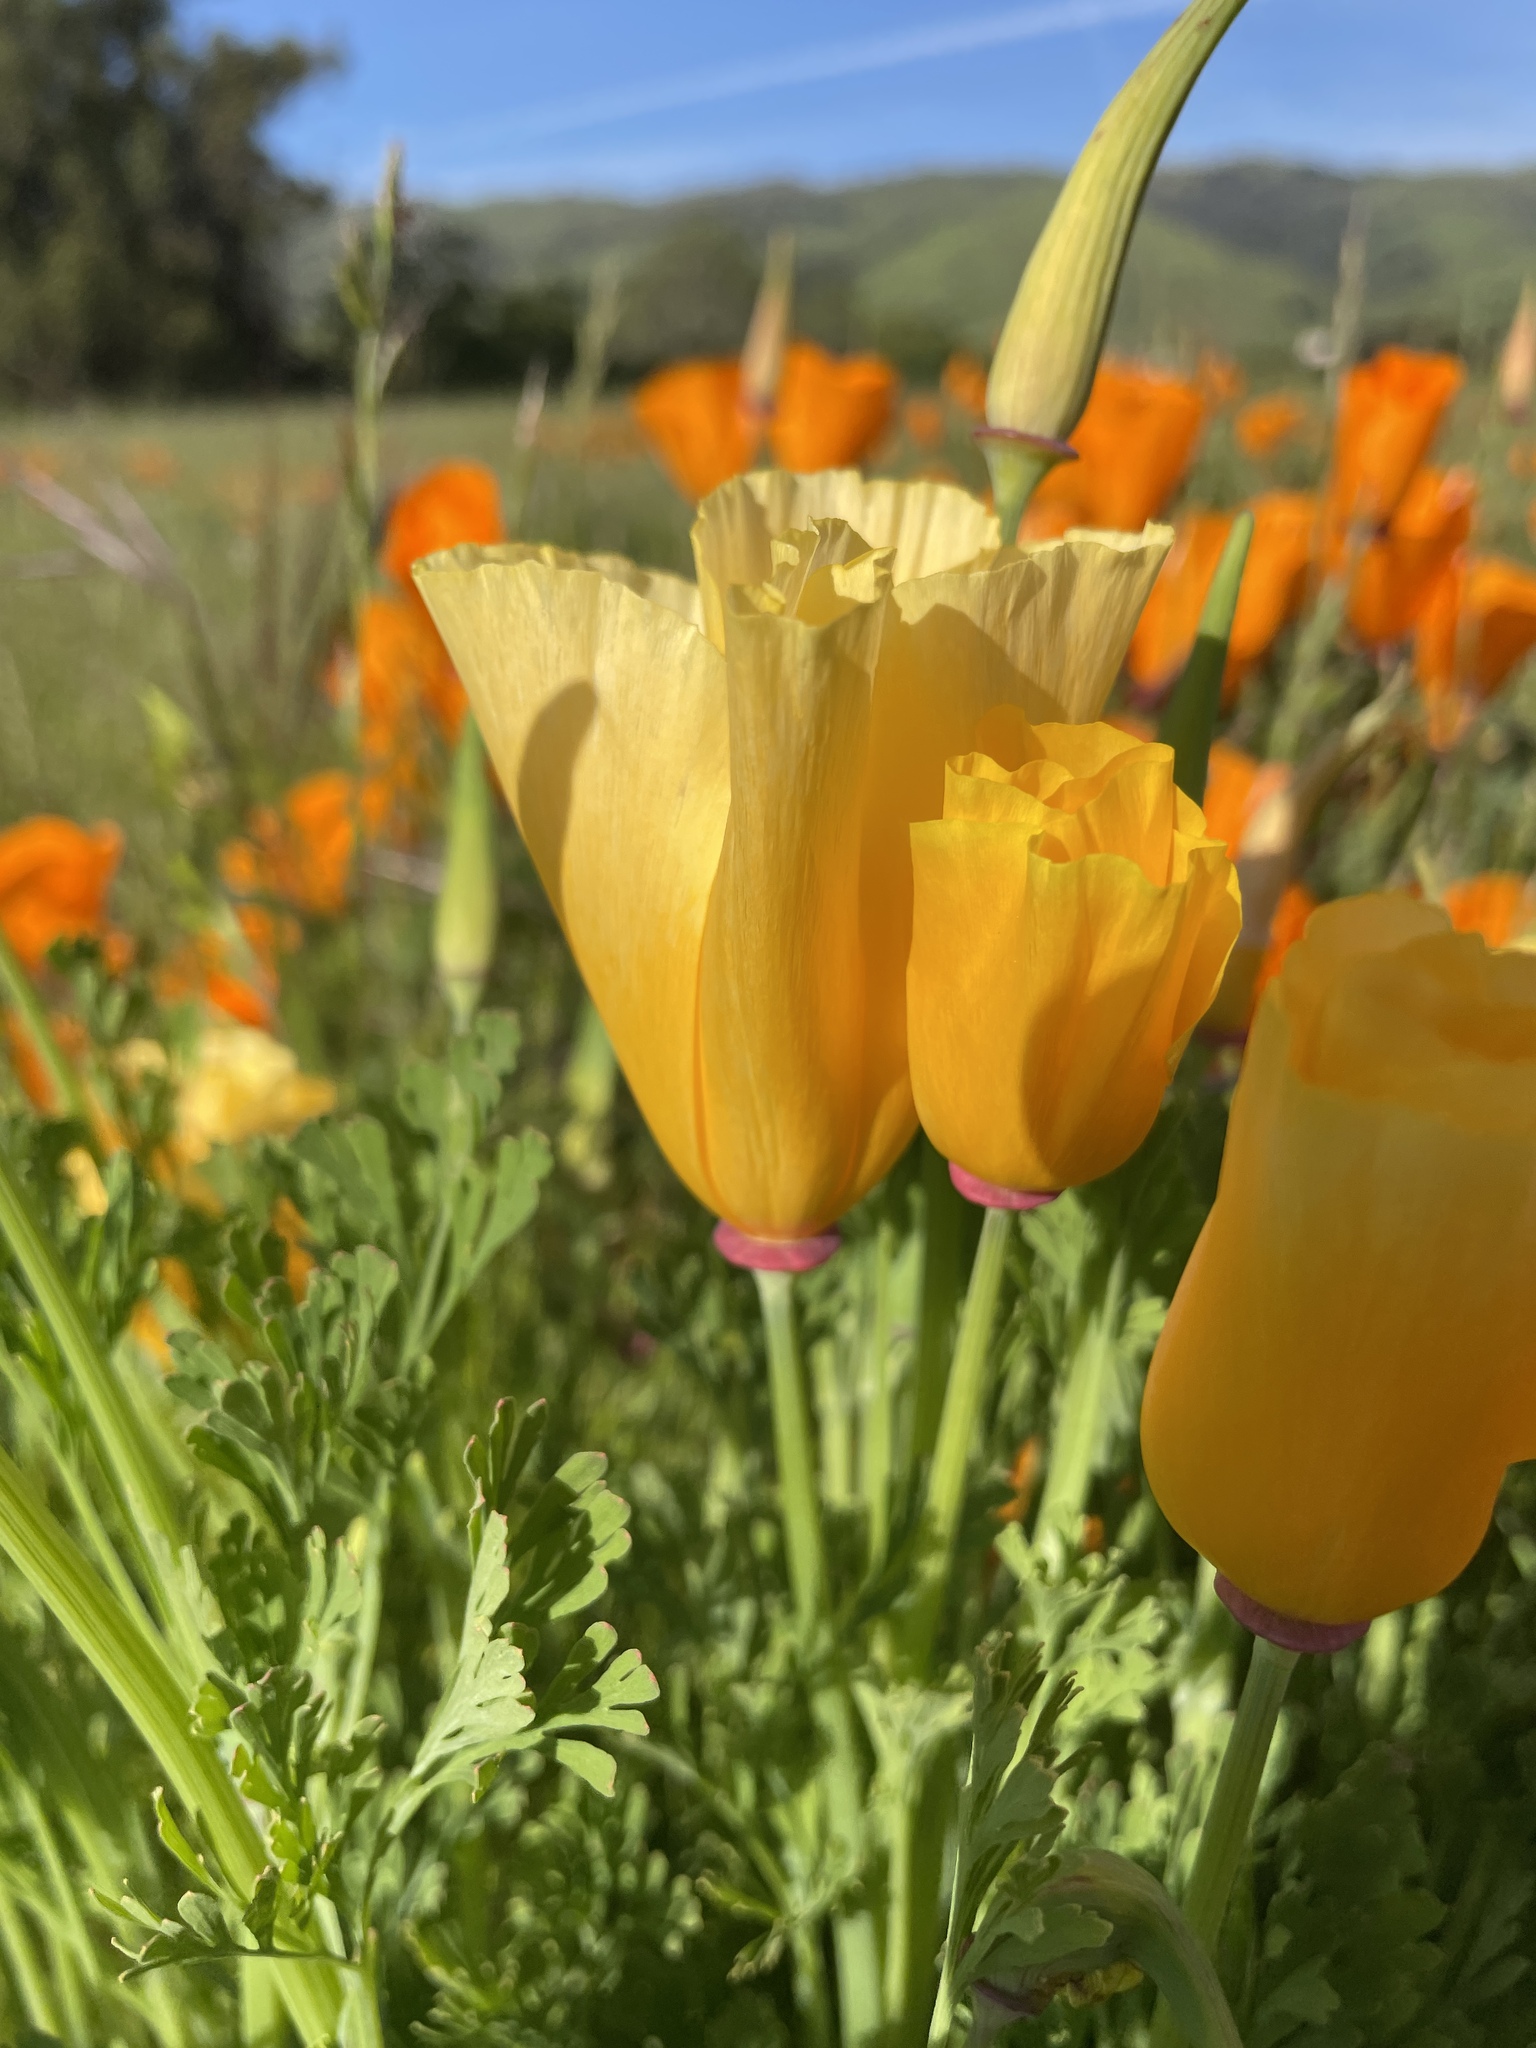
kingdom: Plantae
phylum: Tracheophyta
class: Magnoliopsida
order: Ranunculales
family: Papaveraceae
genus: Eschscholzia
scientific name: Eschscholzia californica
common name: California poppy
